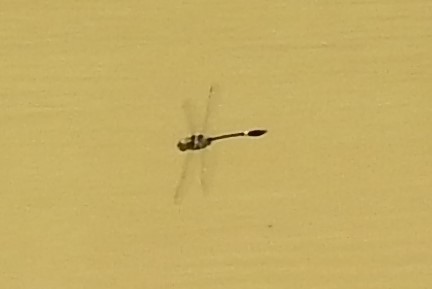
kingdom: Animalia
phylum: Arthropoda
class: Insecta
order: Odonata
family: Macromiidae
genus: Macromia
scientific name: Macromia illinoiensis
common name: Swift river cruiser
